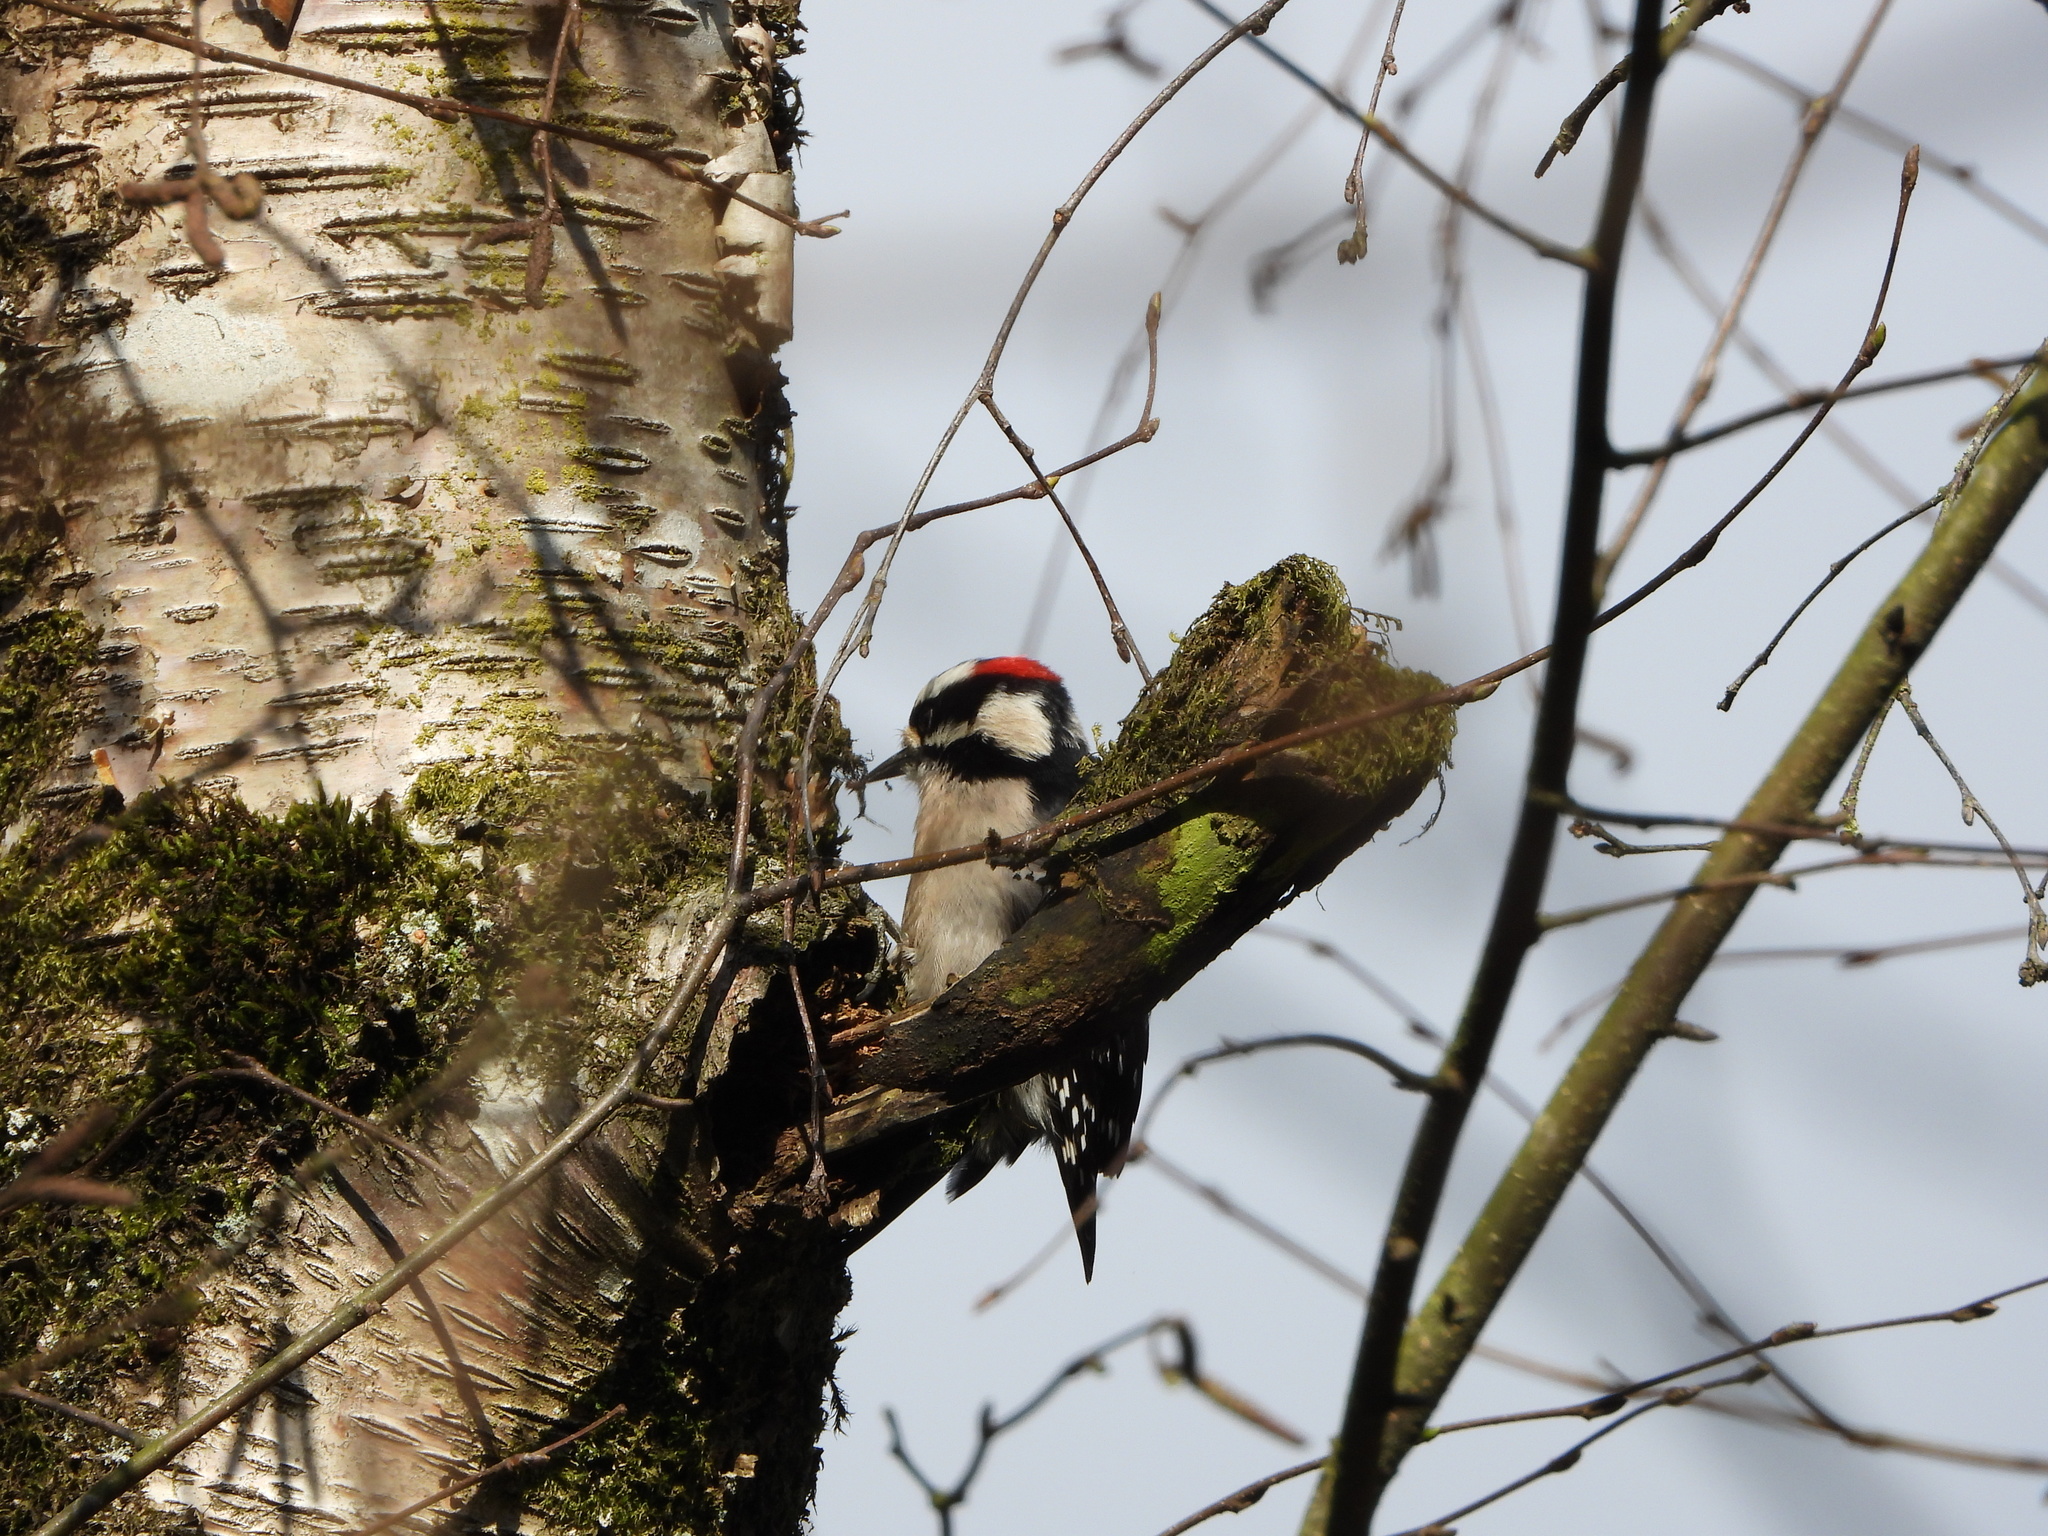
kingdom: Animalia
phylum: Chordata
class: Aves
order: Piciformes
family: Picidae
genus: Dryobates
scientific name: Dryobates pubescens
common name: Downy woodpecker
